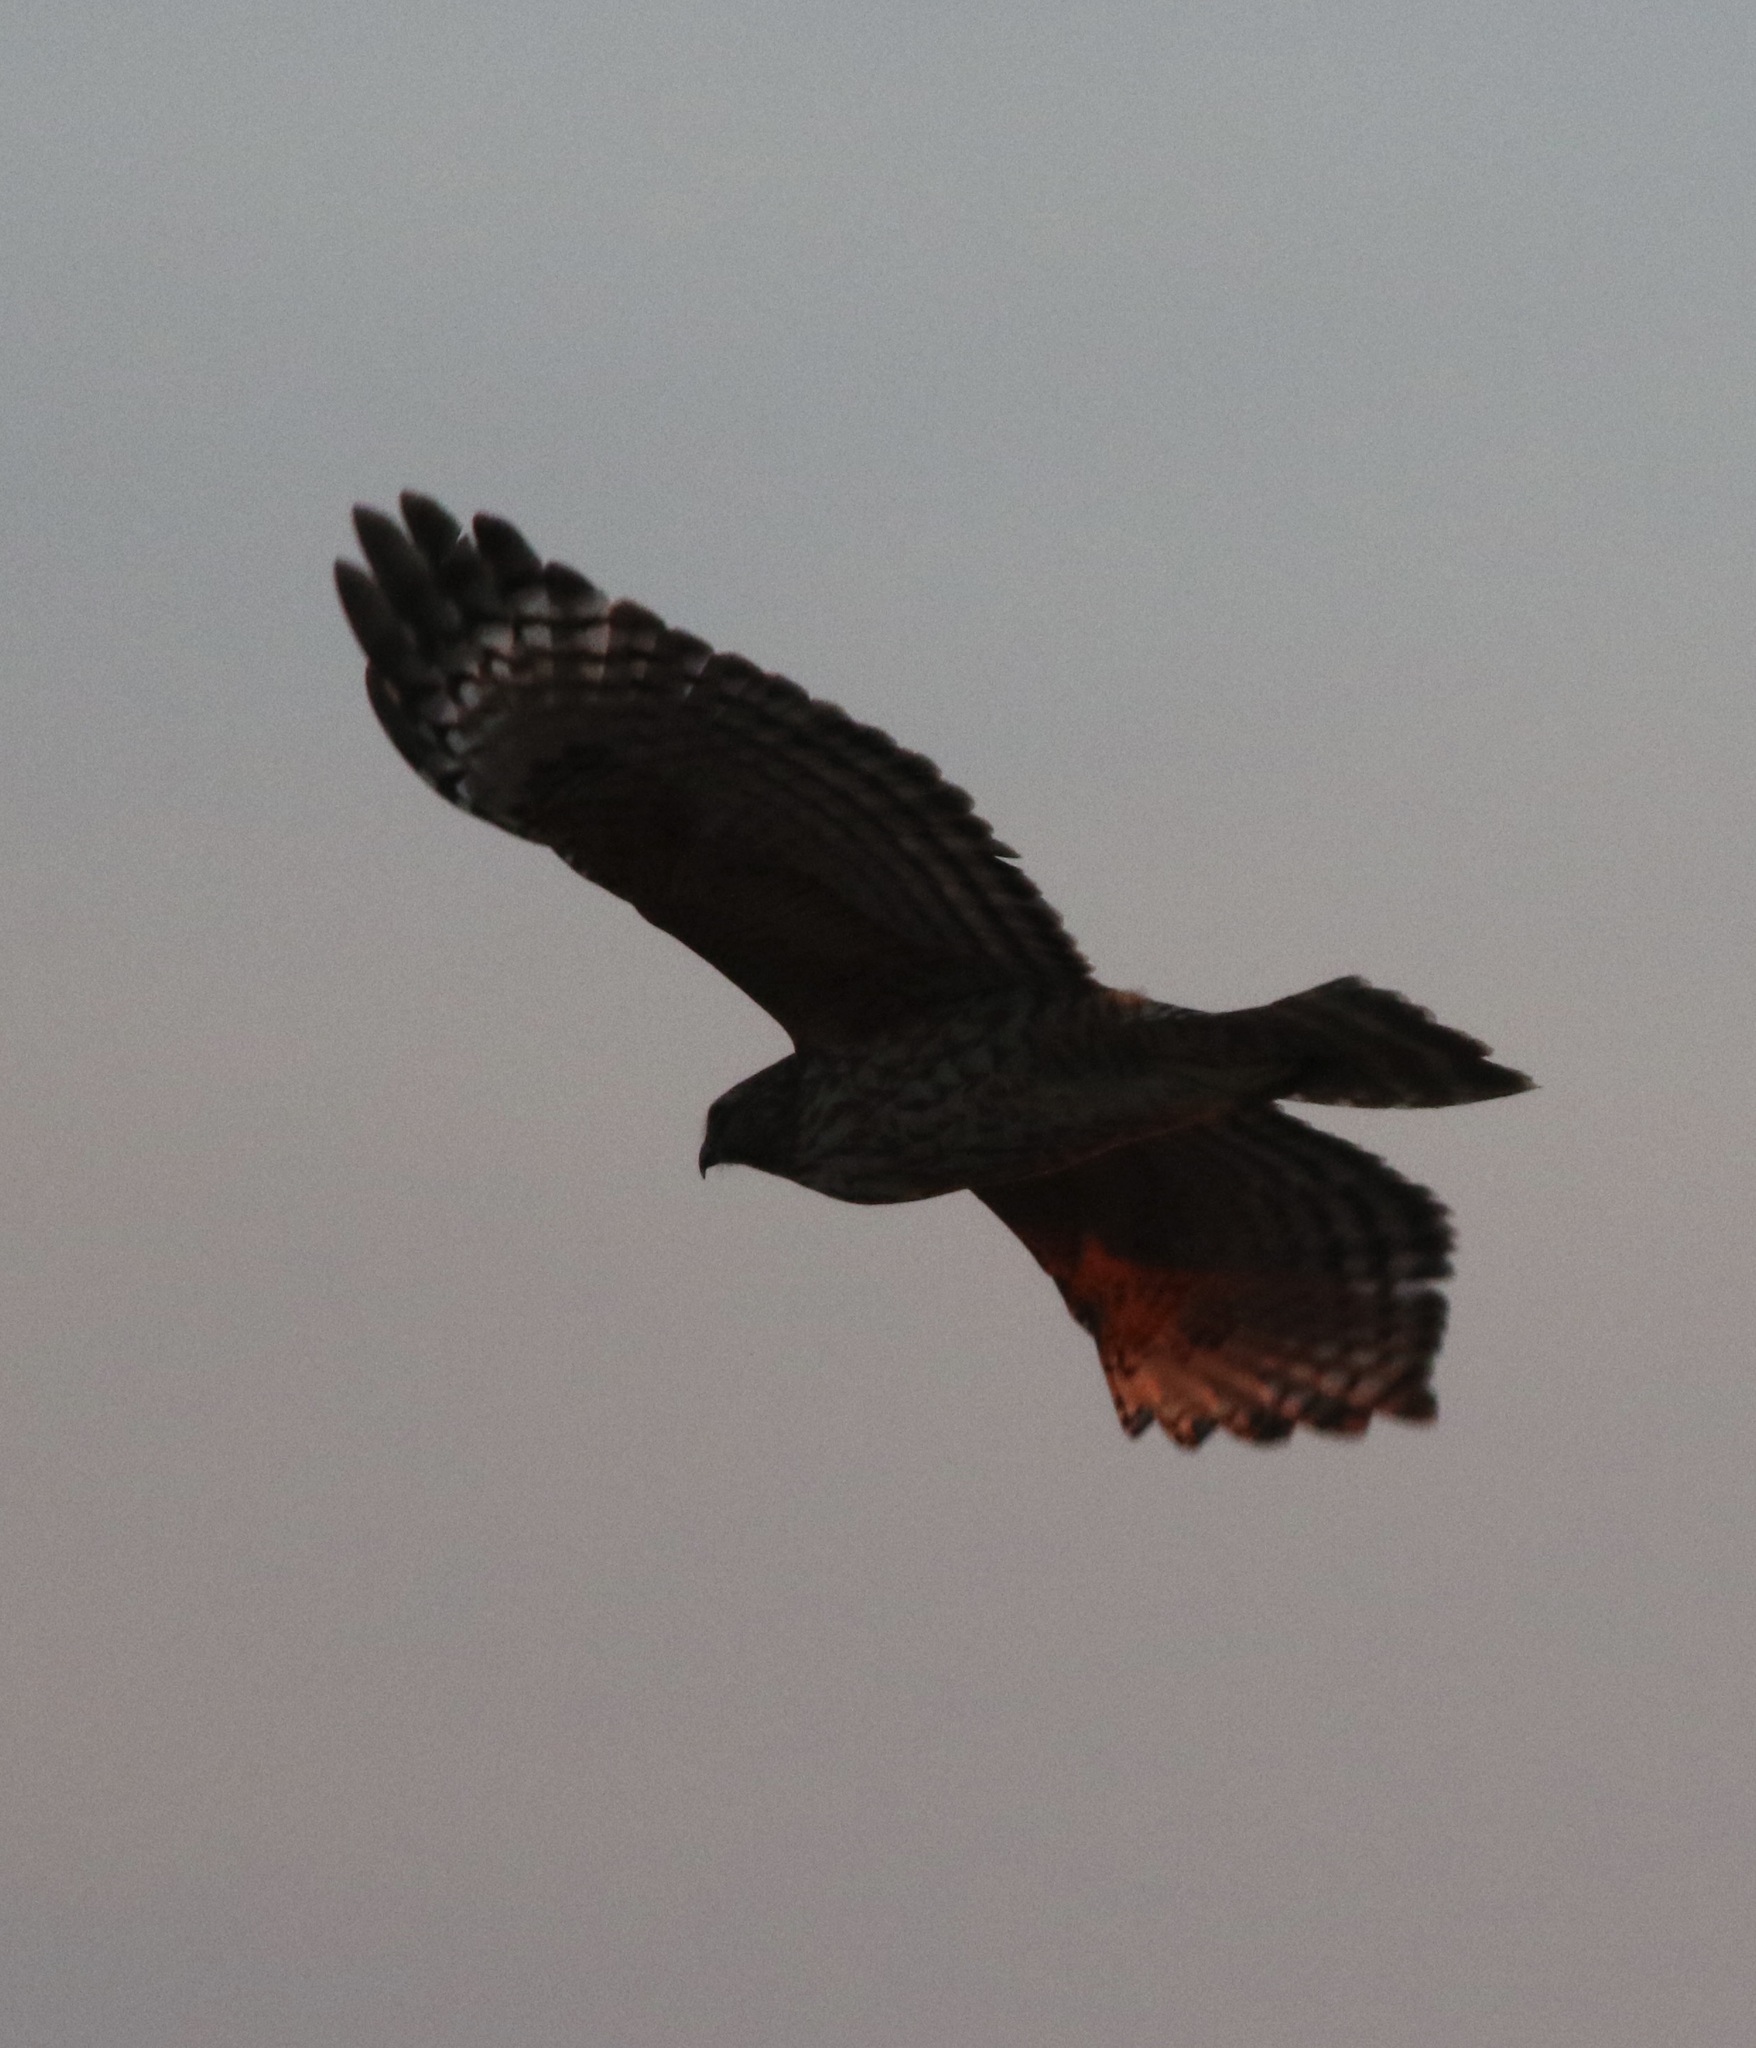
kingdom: Animalia
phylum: Chordata
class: Aves
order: Accipitriformes
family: Accipitridae
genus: Buteo
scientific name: Buteo lineatus
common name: Red-shouldered hawk
